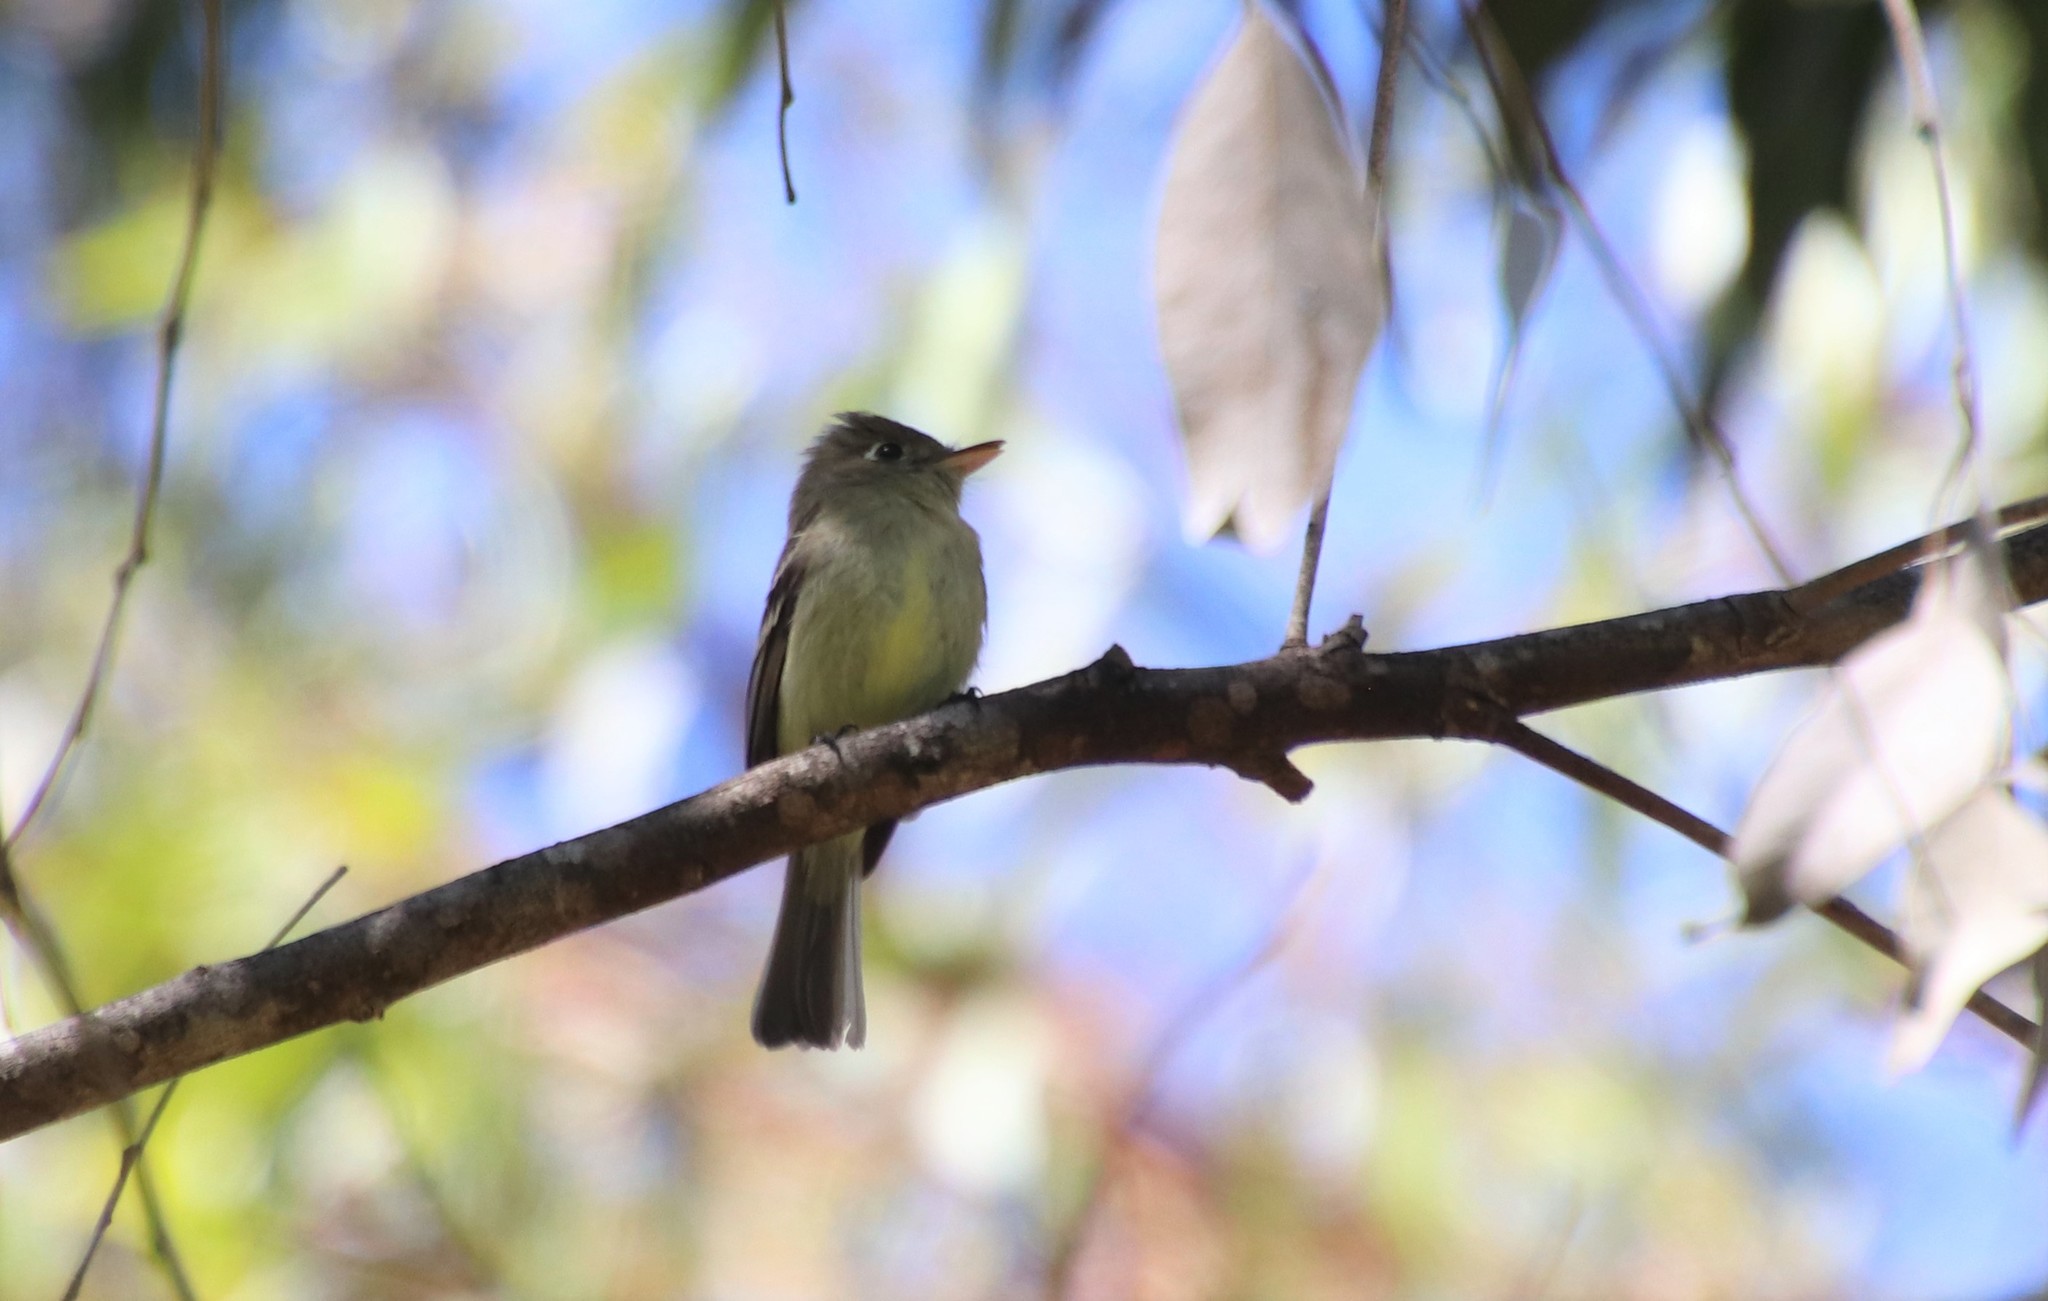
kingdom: Animalia
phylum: Chordata
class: Aves
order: Passeriformes
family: Tyrannidae
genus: Empidonax
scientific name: Empidonax difficilis
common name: Pacific-slope flycatcher
